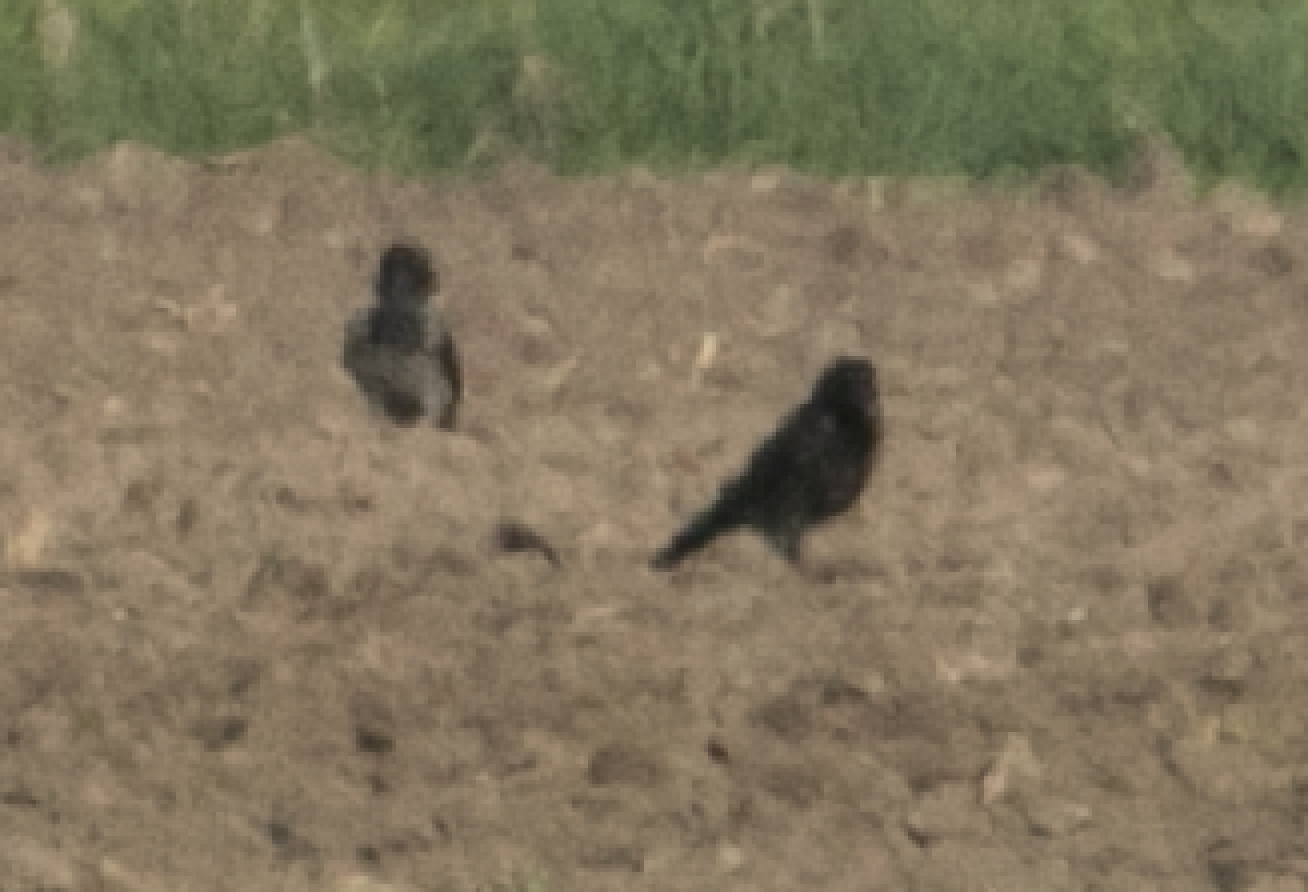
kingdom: Animalia
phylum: Chordata
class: Aves
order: Passeriformes
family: Corvidae
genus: Corvus
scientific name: Corvus
